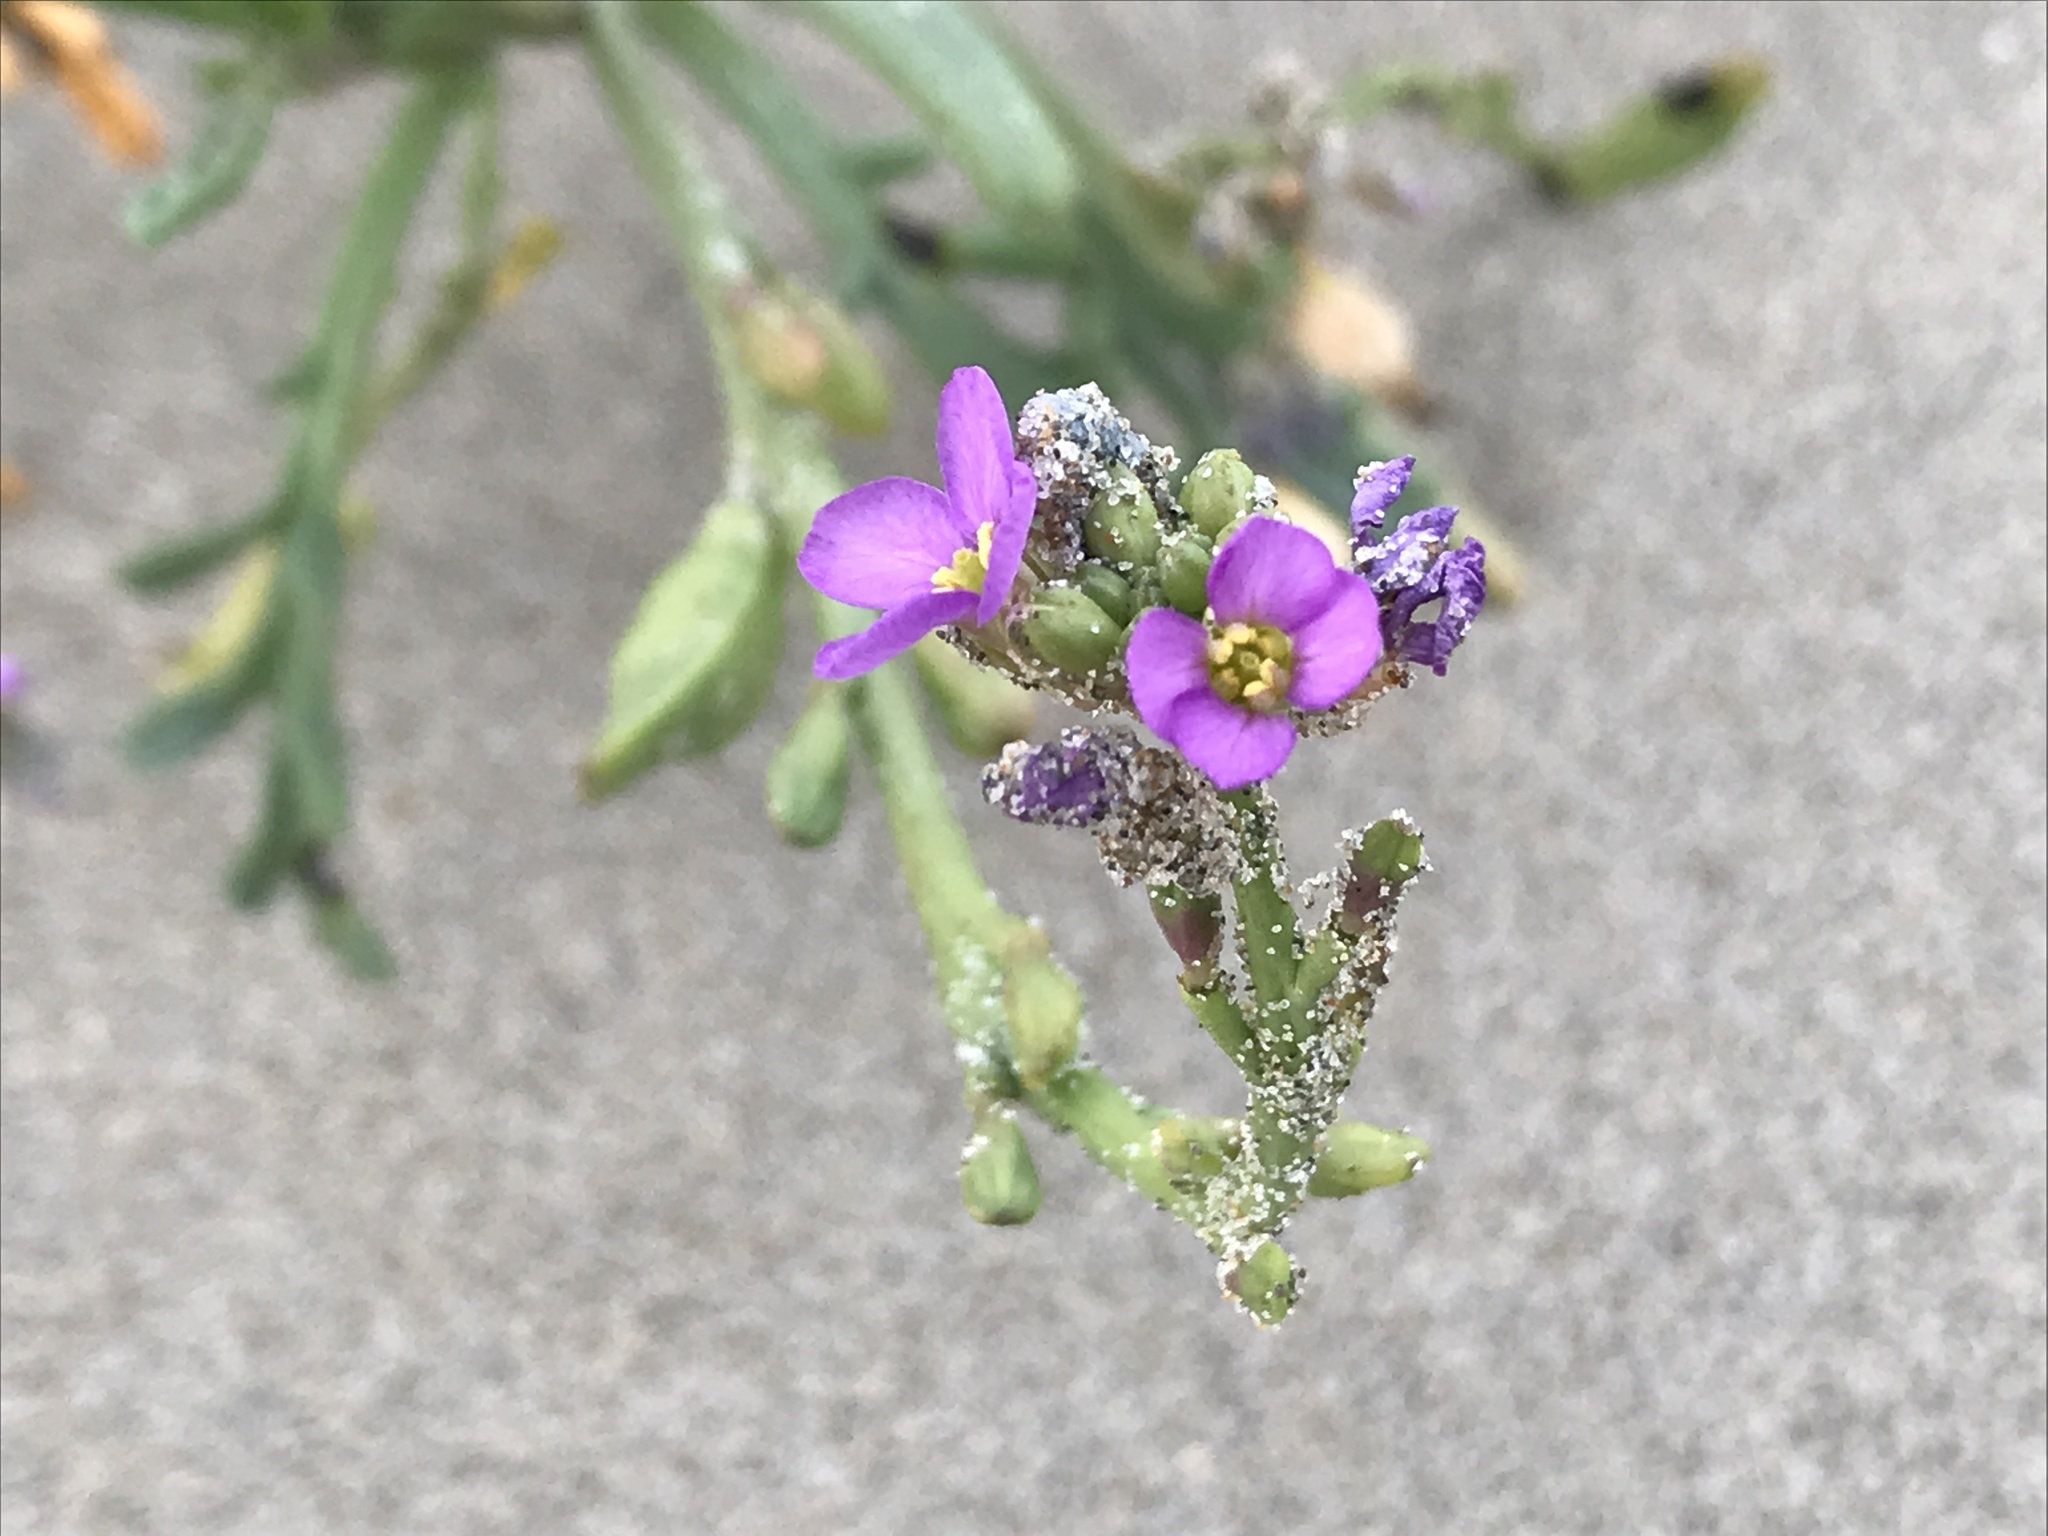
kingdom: Plantae
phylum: Tracheophyta
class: Magnoliopsida
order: Brassicales
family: Brassicaceae
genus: Cakile
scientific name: Cakile maritima
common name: Sea rocket
